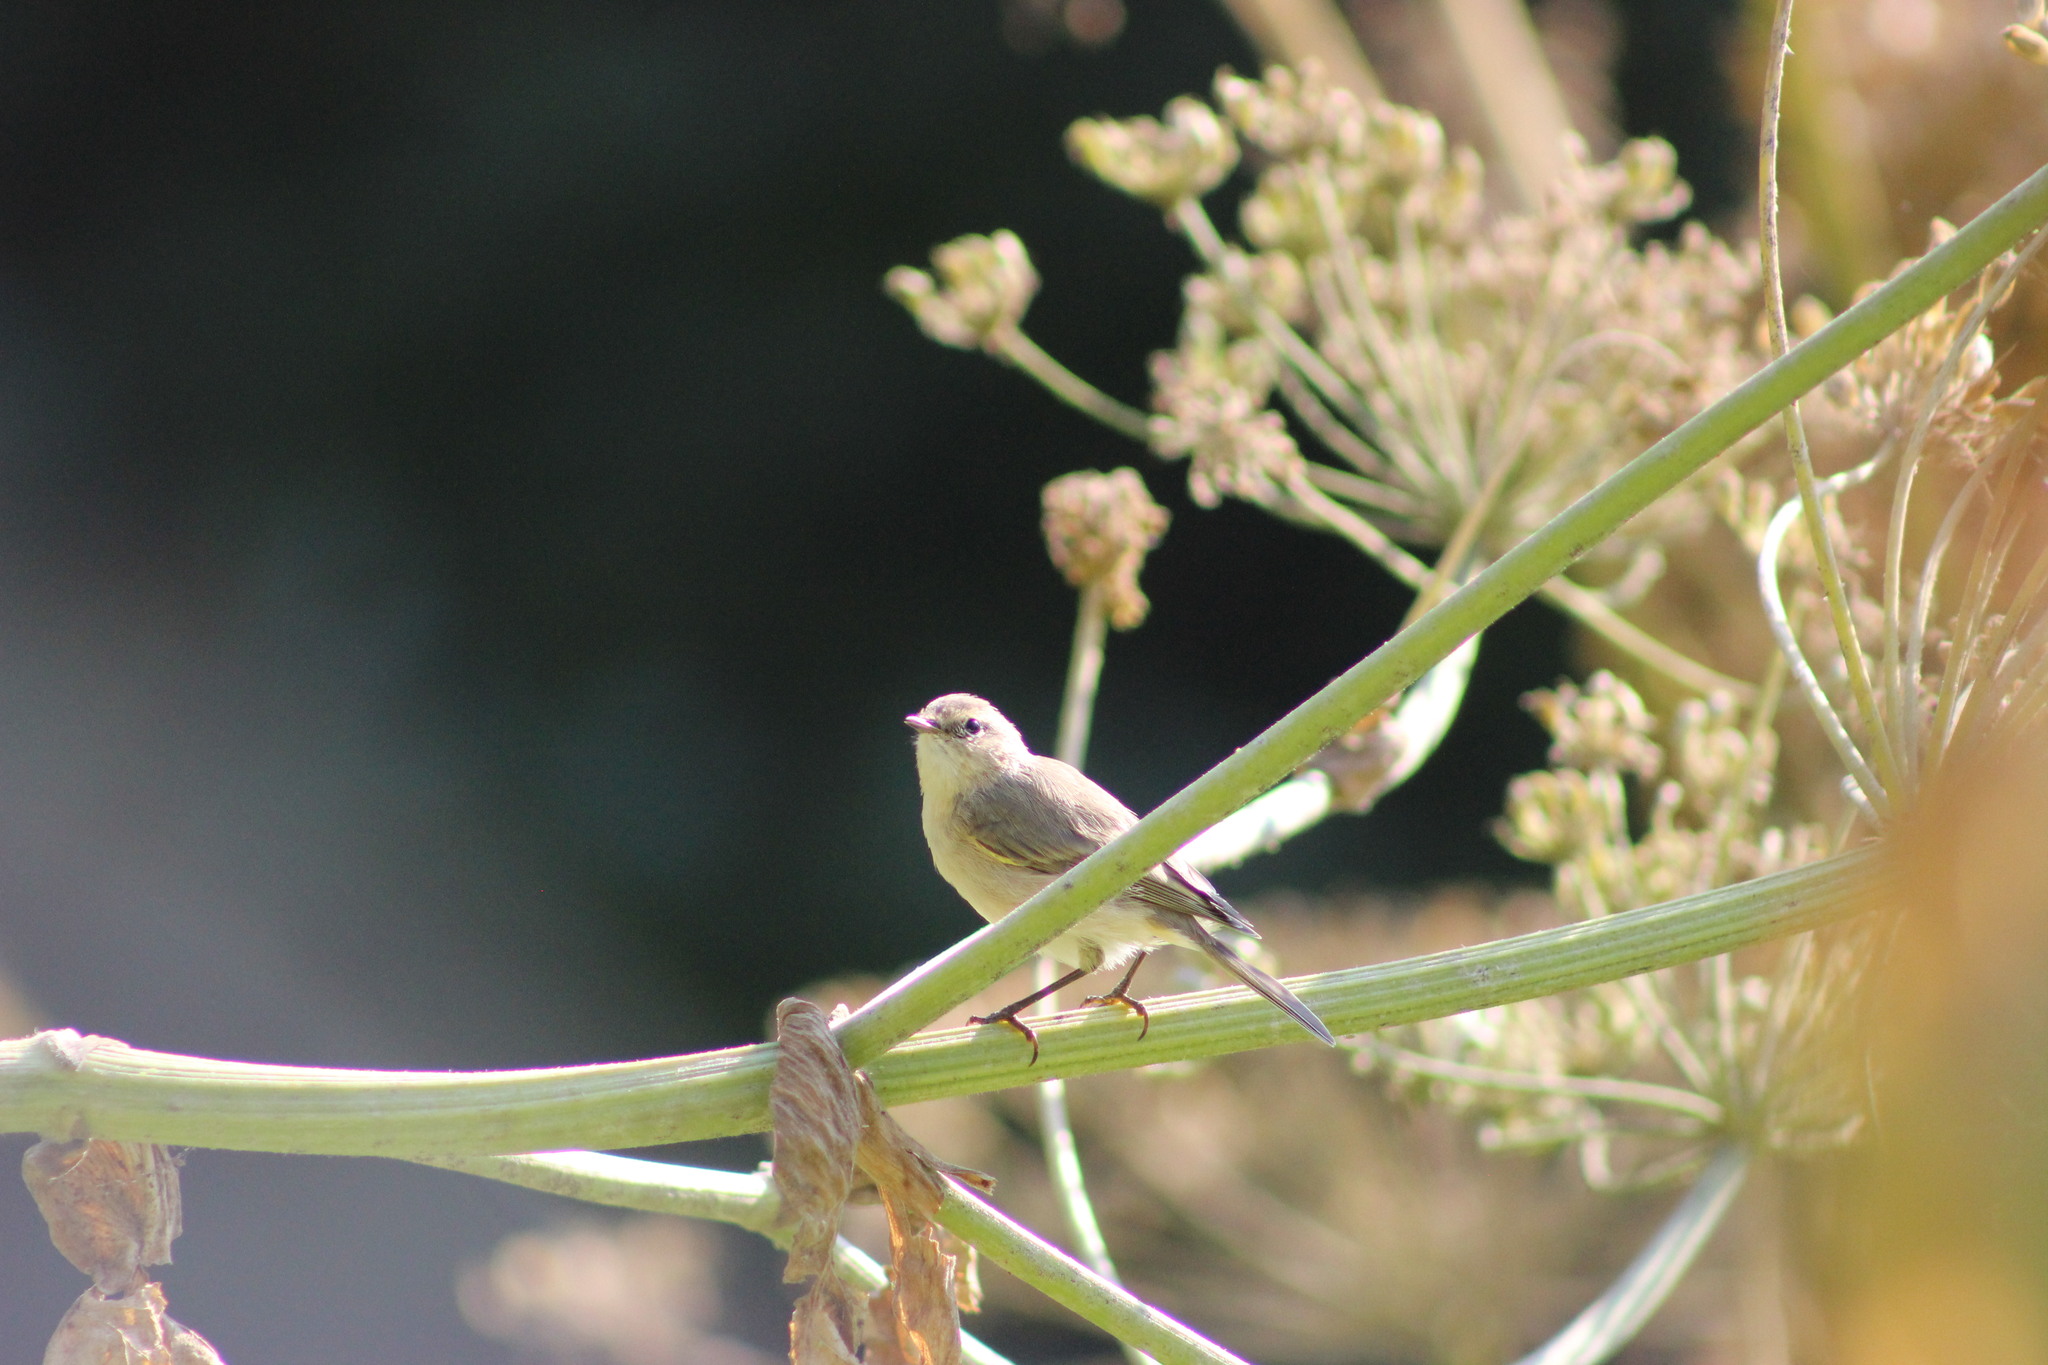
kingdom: Animalia
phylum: Chordata
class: Aves
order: Passeriformes
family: Phylloscopidae
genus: Phylloscopus
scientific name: Phylloscopus trochilus
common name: Willow warbler
